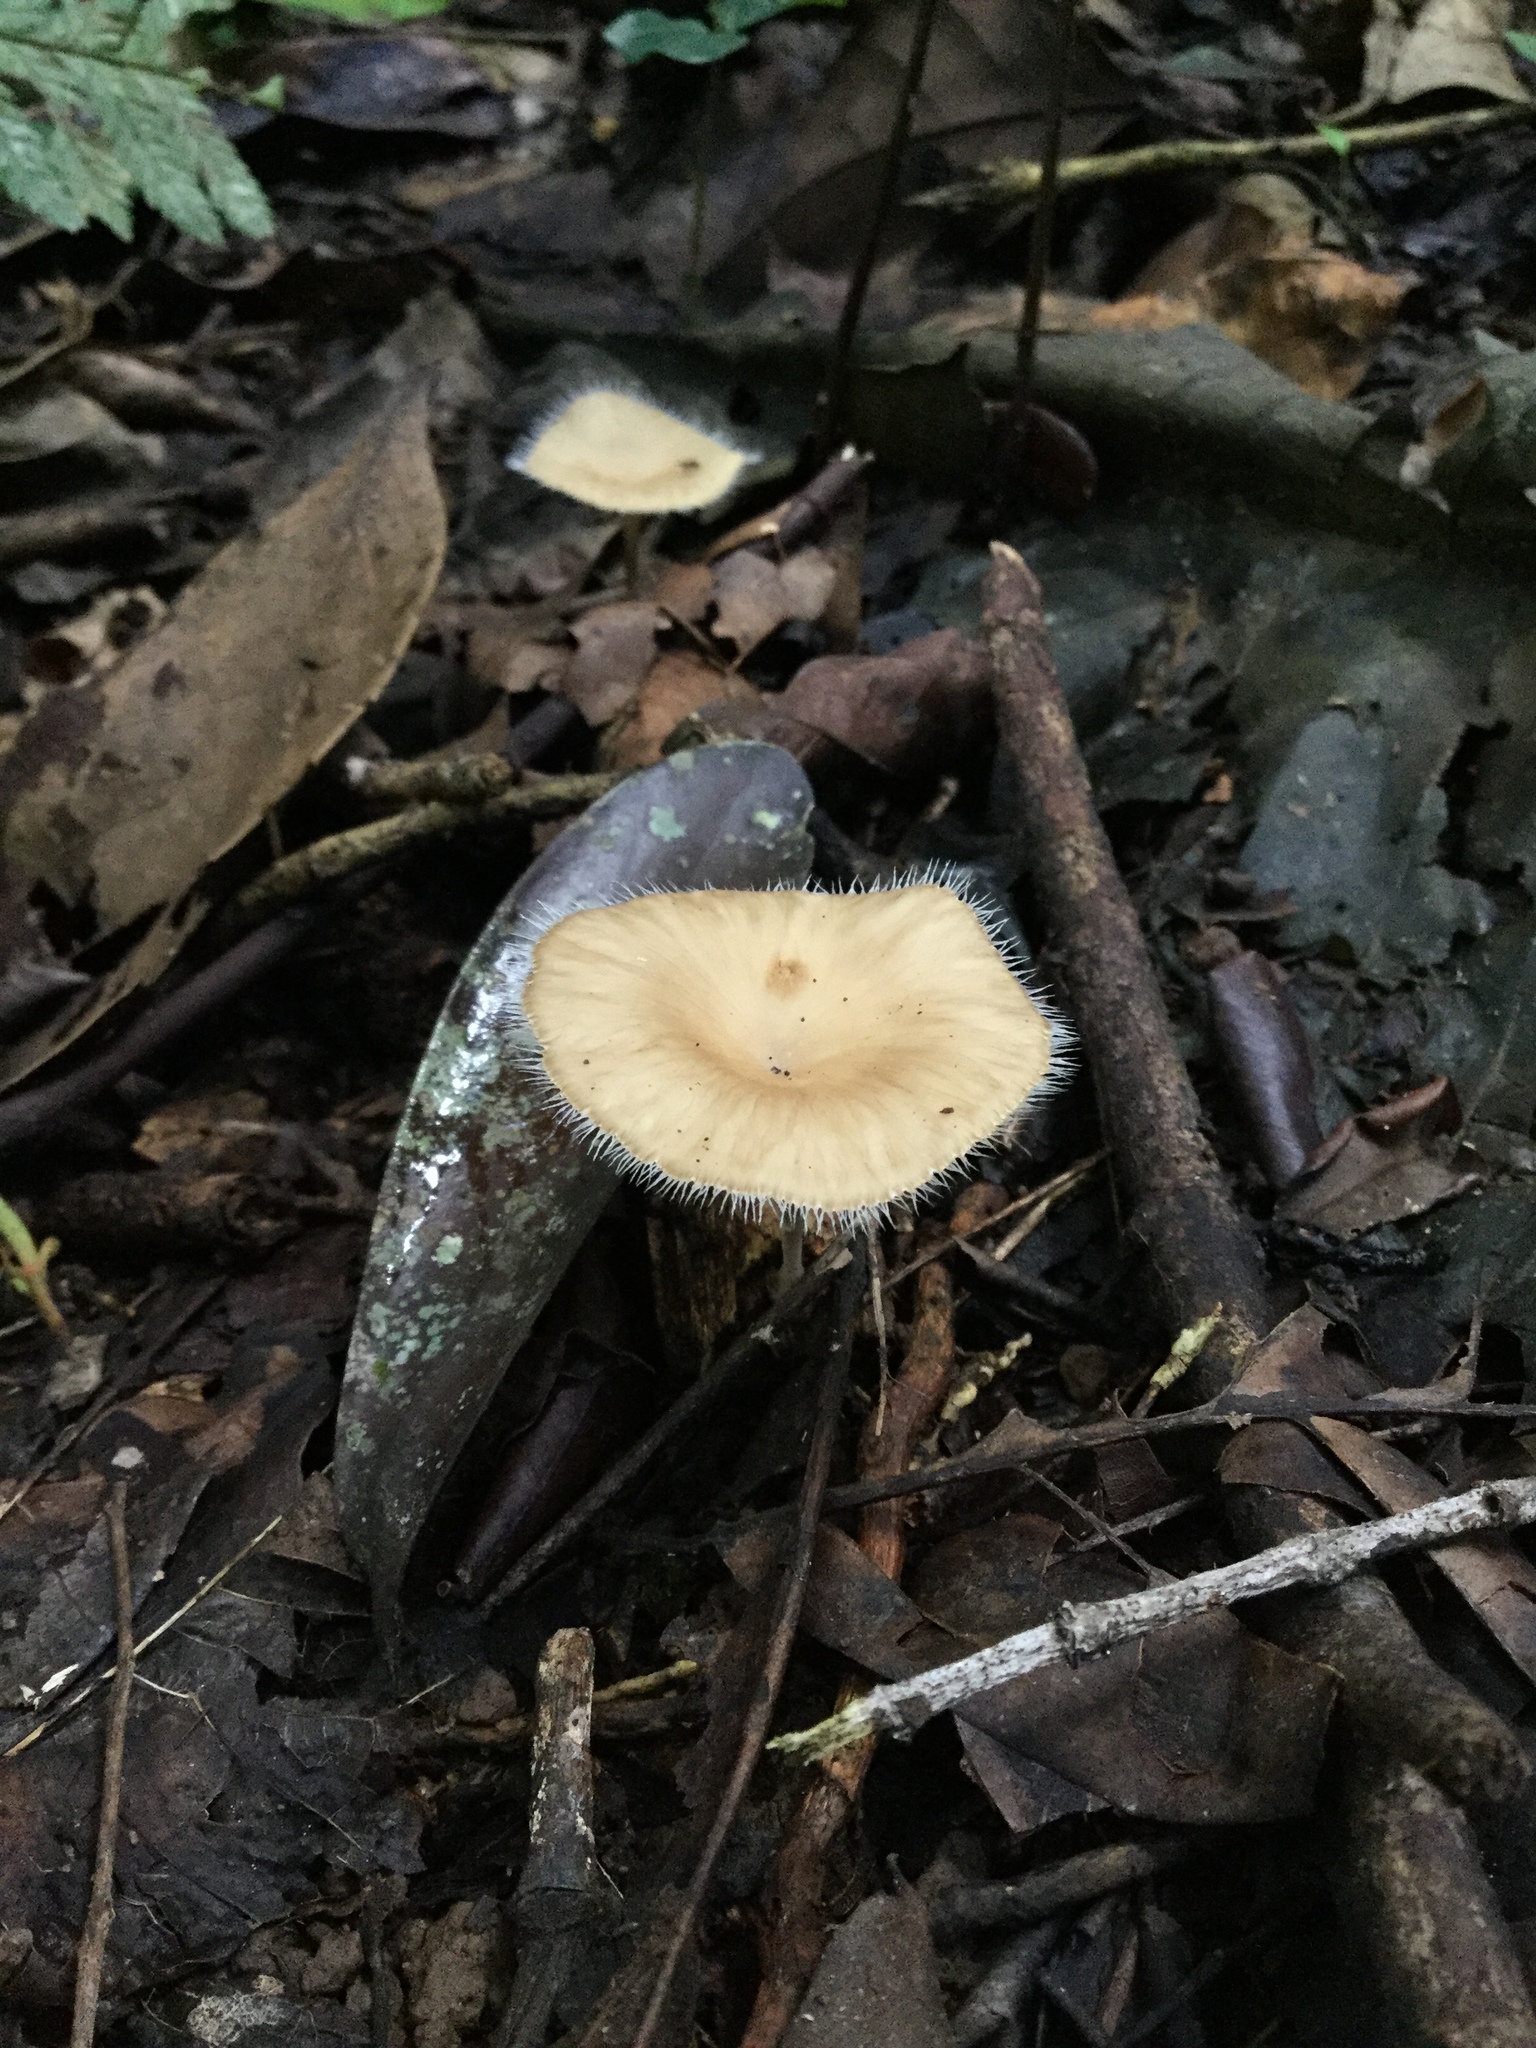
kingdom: Fungi
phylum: Basidiomycota
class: Agaricomycetes
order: Polyporales
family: Polyporaceae
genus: Lentinus
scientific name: Lentinus flexipes
